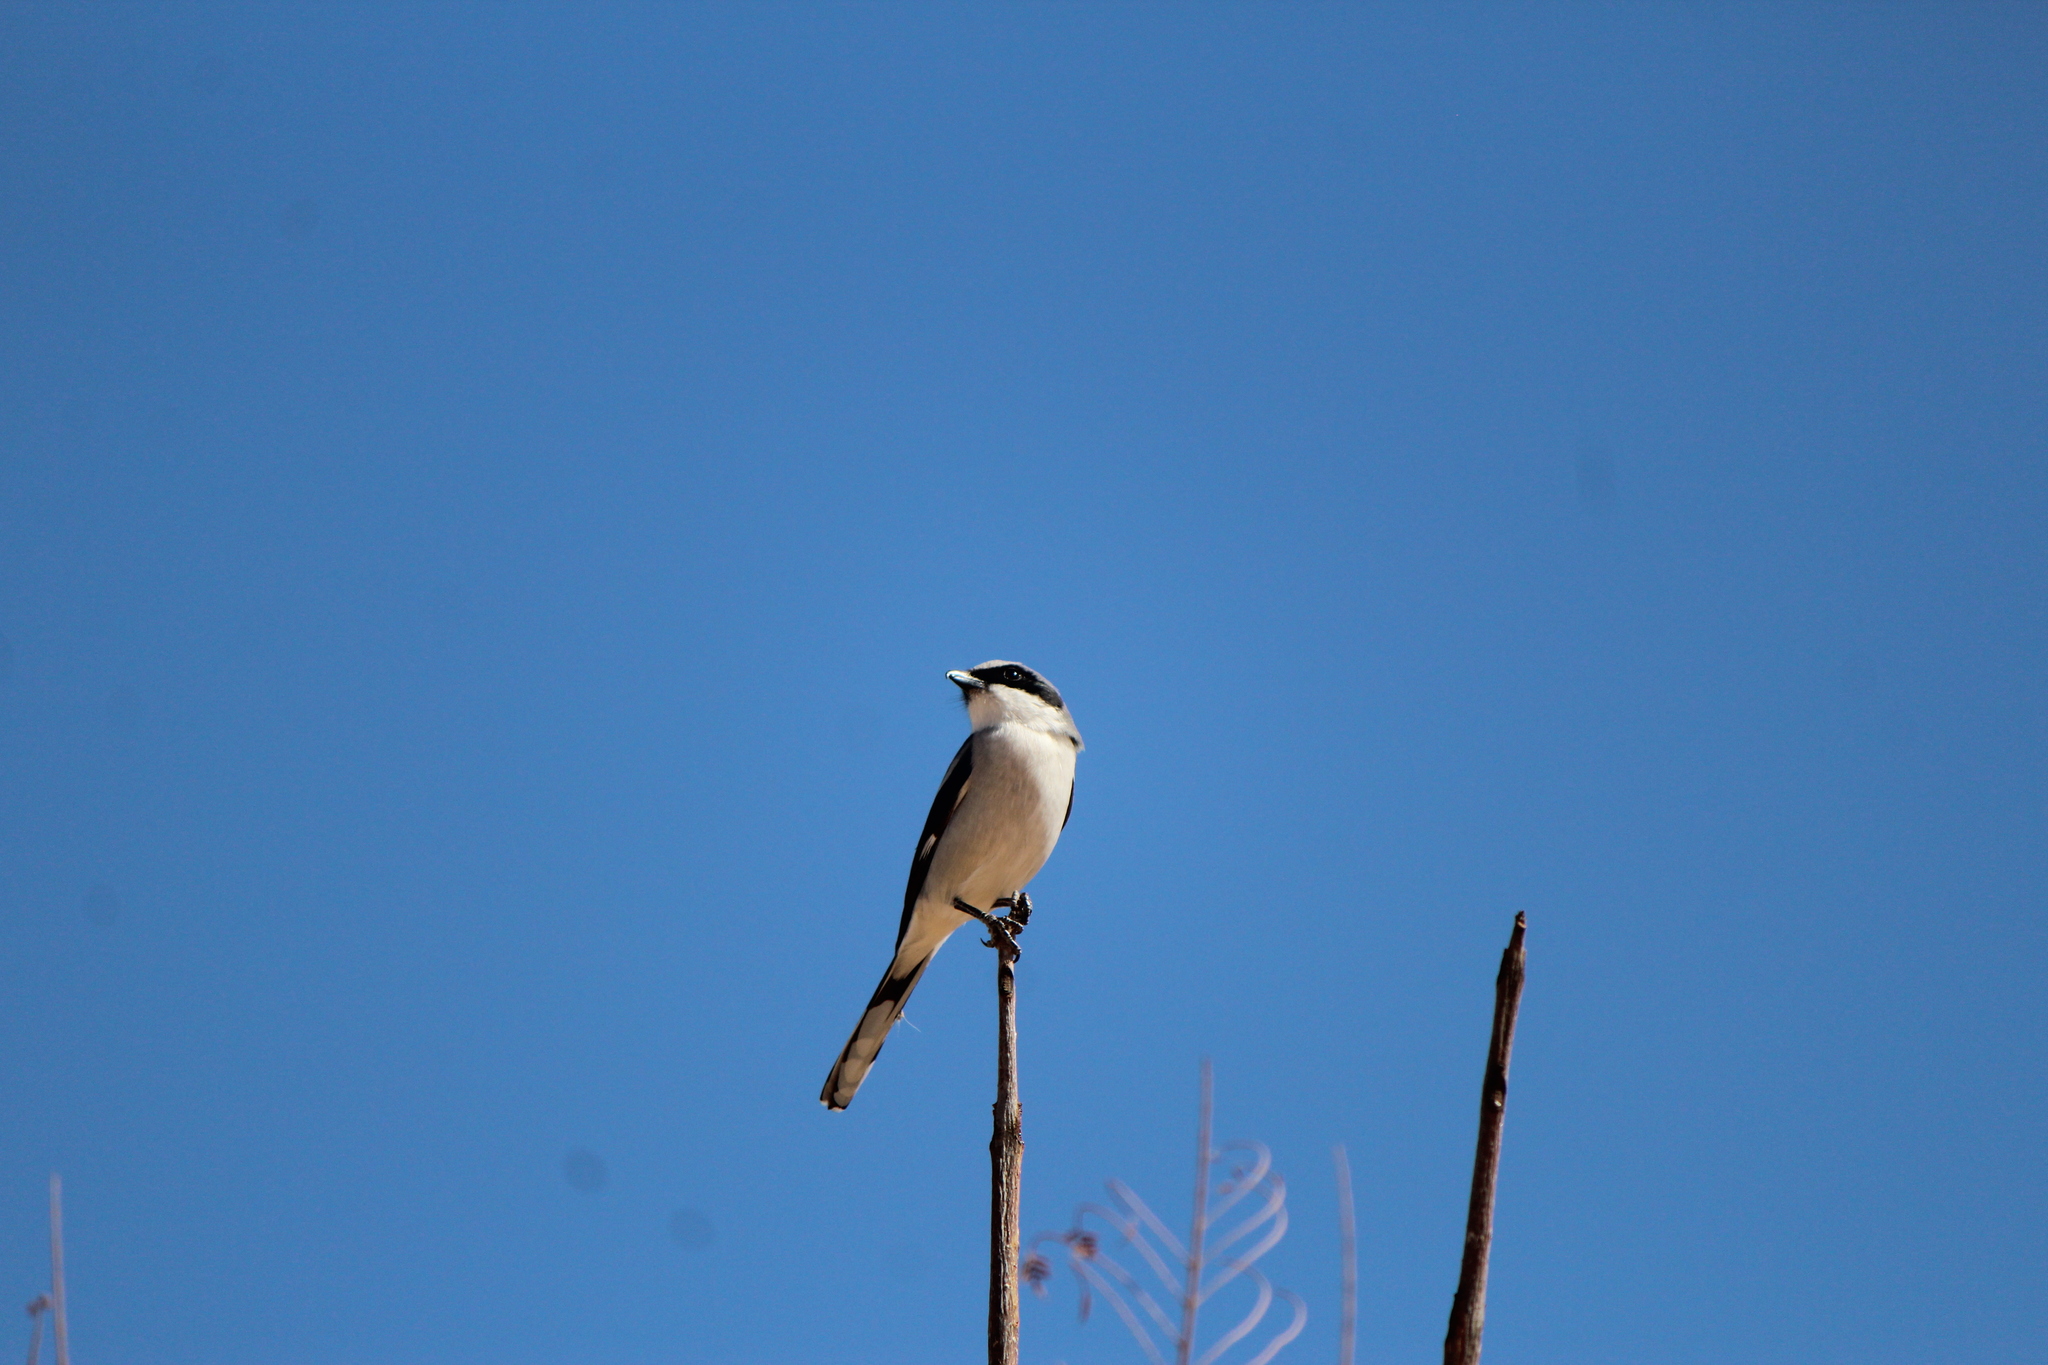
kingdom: Animalia
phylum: Chordata
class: Aves
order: Passeriformes
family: Laniidae
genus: Lanius
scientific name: Lanius ludovicianus
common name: Loggerhead shrike
